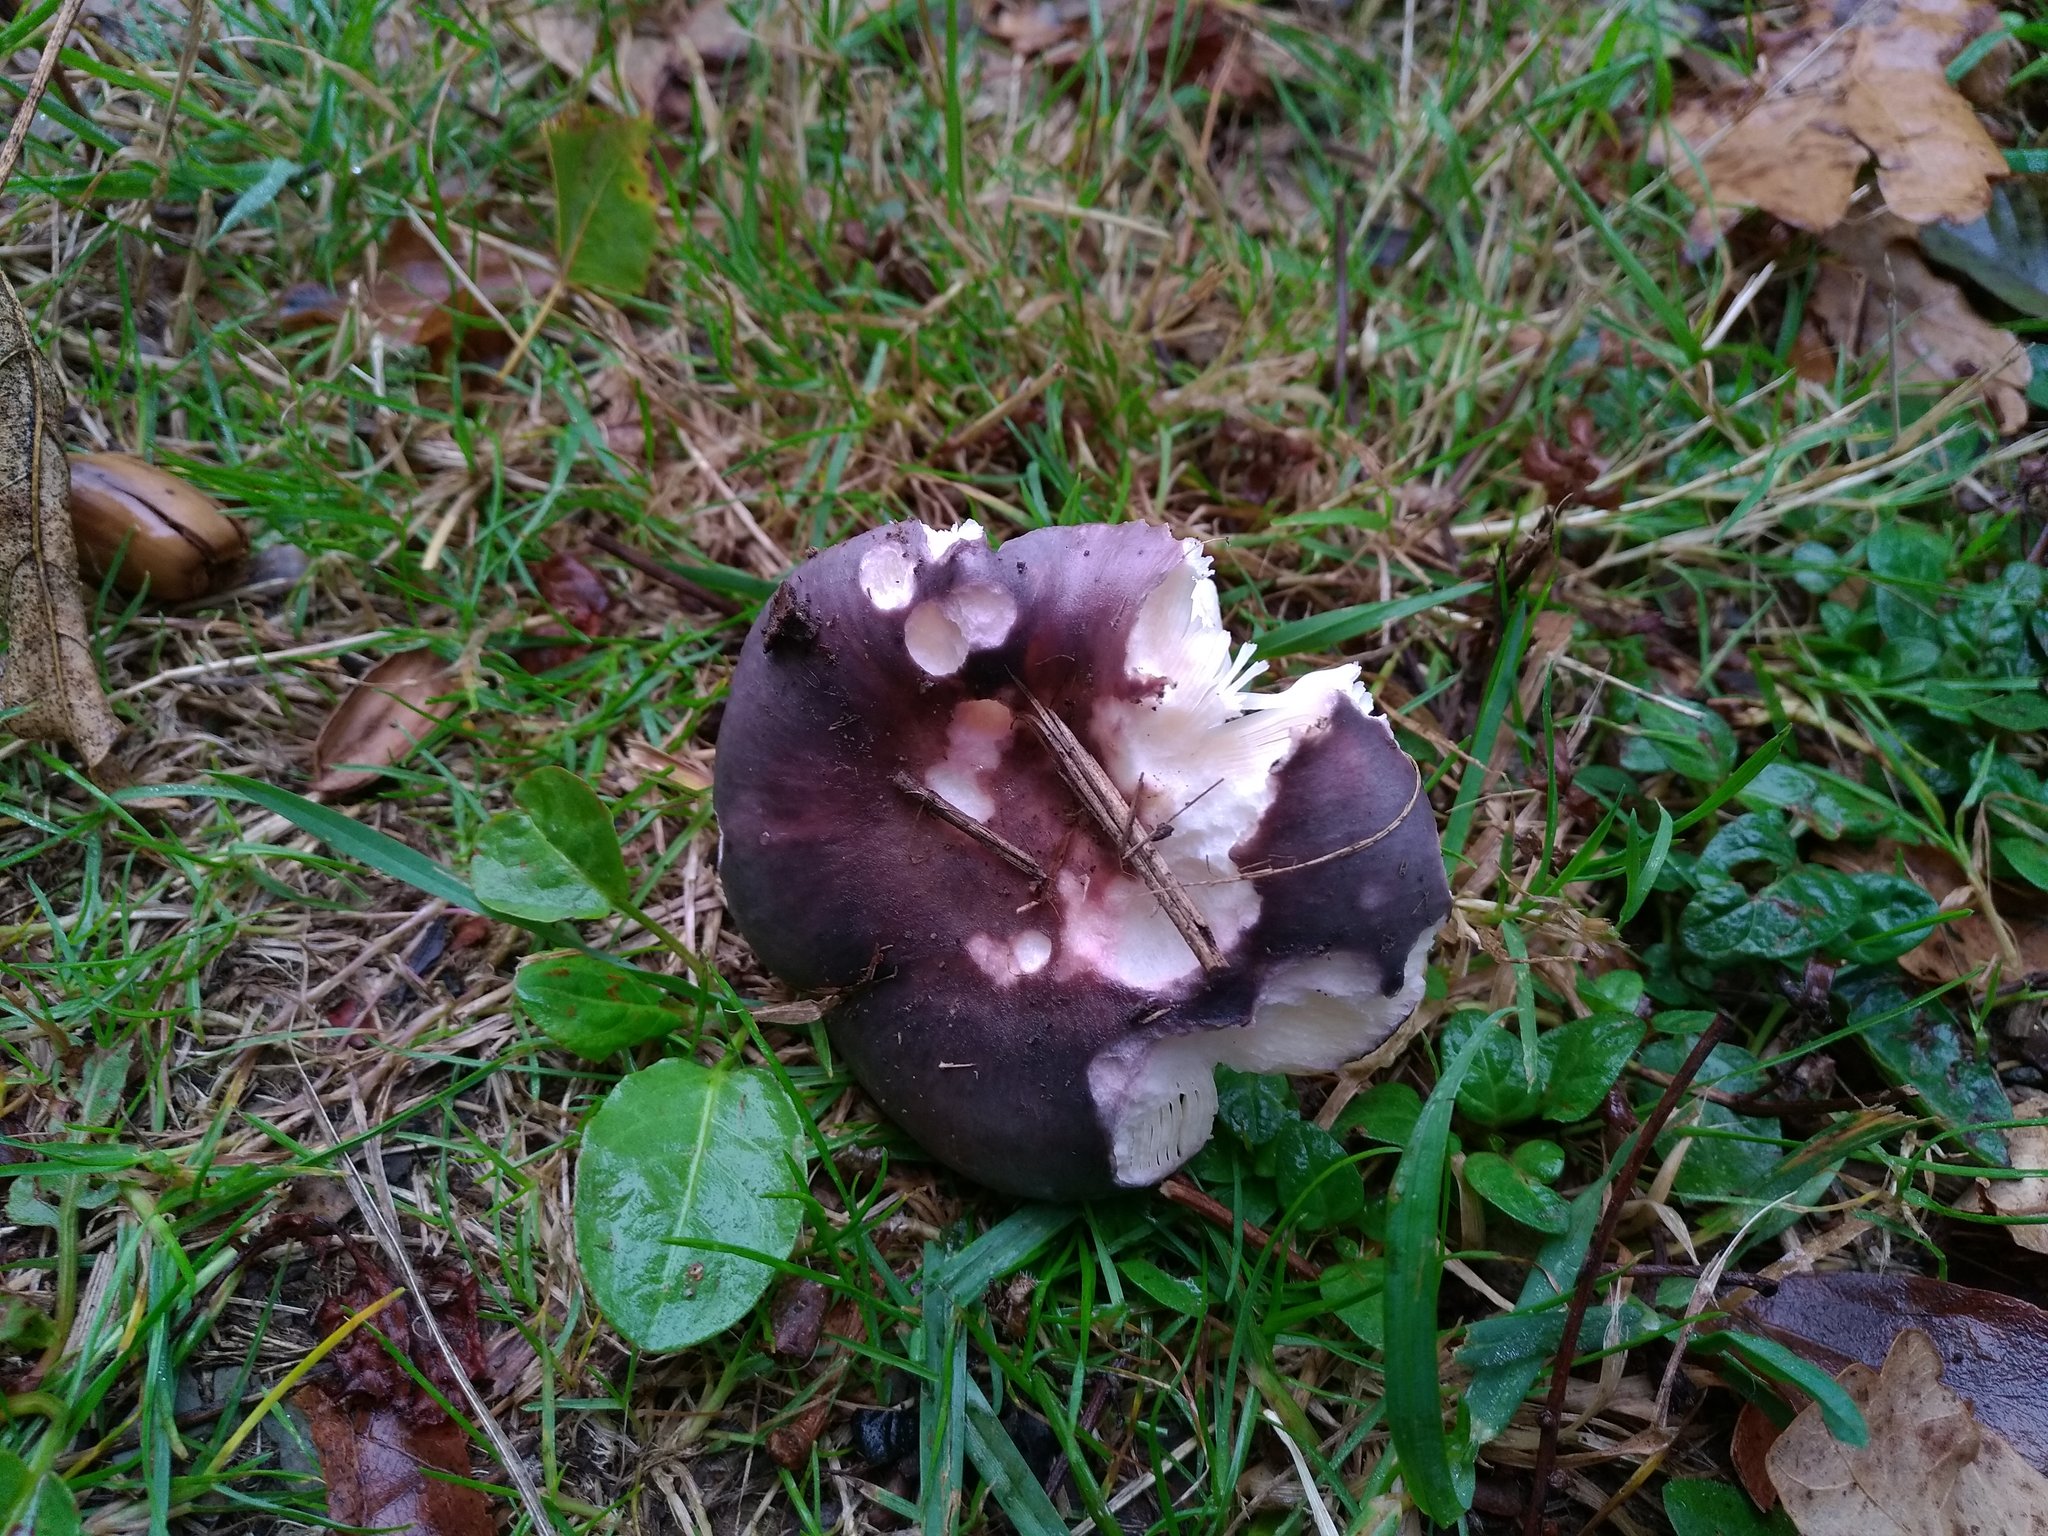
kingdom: Fungi
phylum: Basidiomycota
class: Agaricomycetes
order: Russulales
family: Russulaceae
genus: Russula
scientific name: Russula cyanoxantha
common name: Charcoal burner
